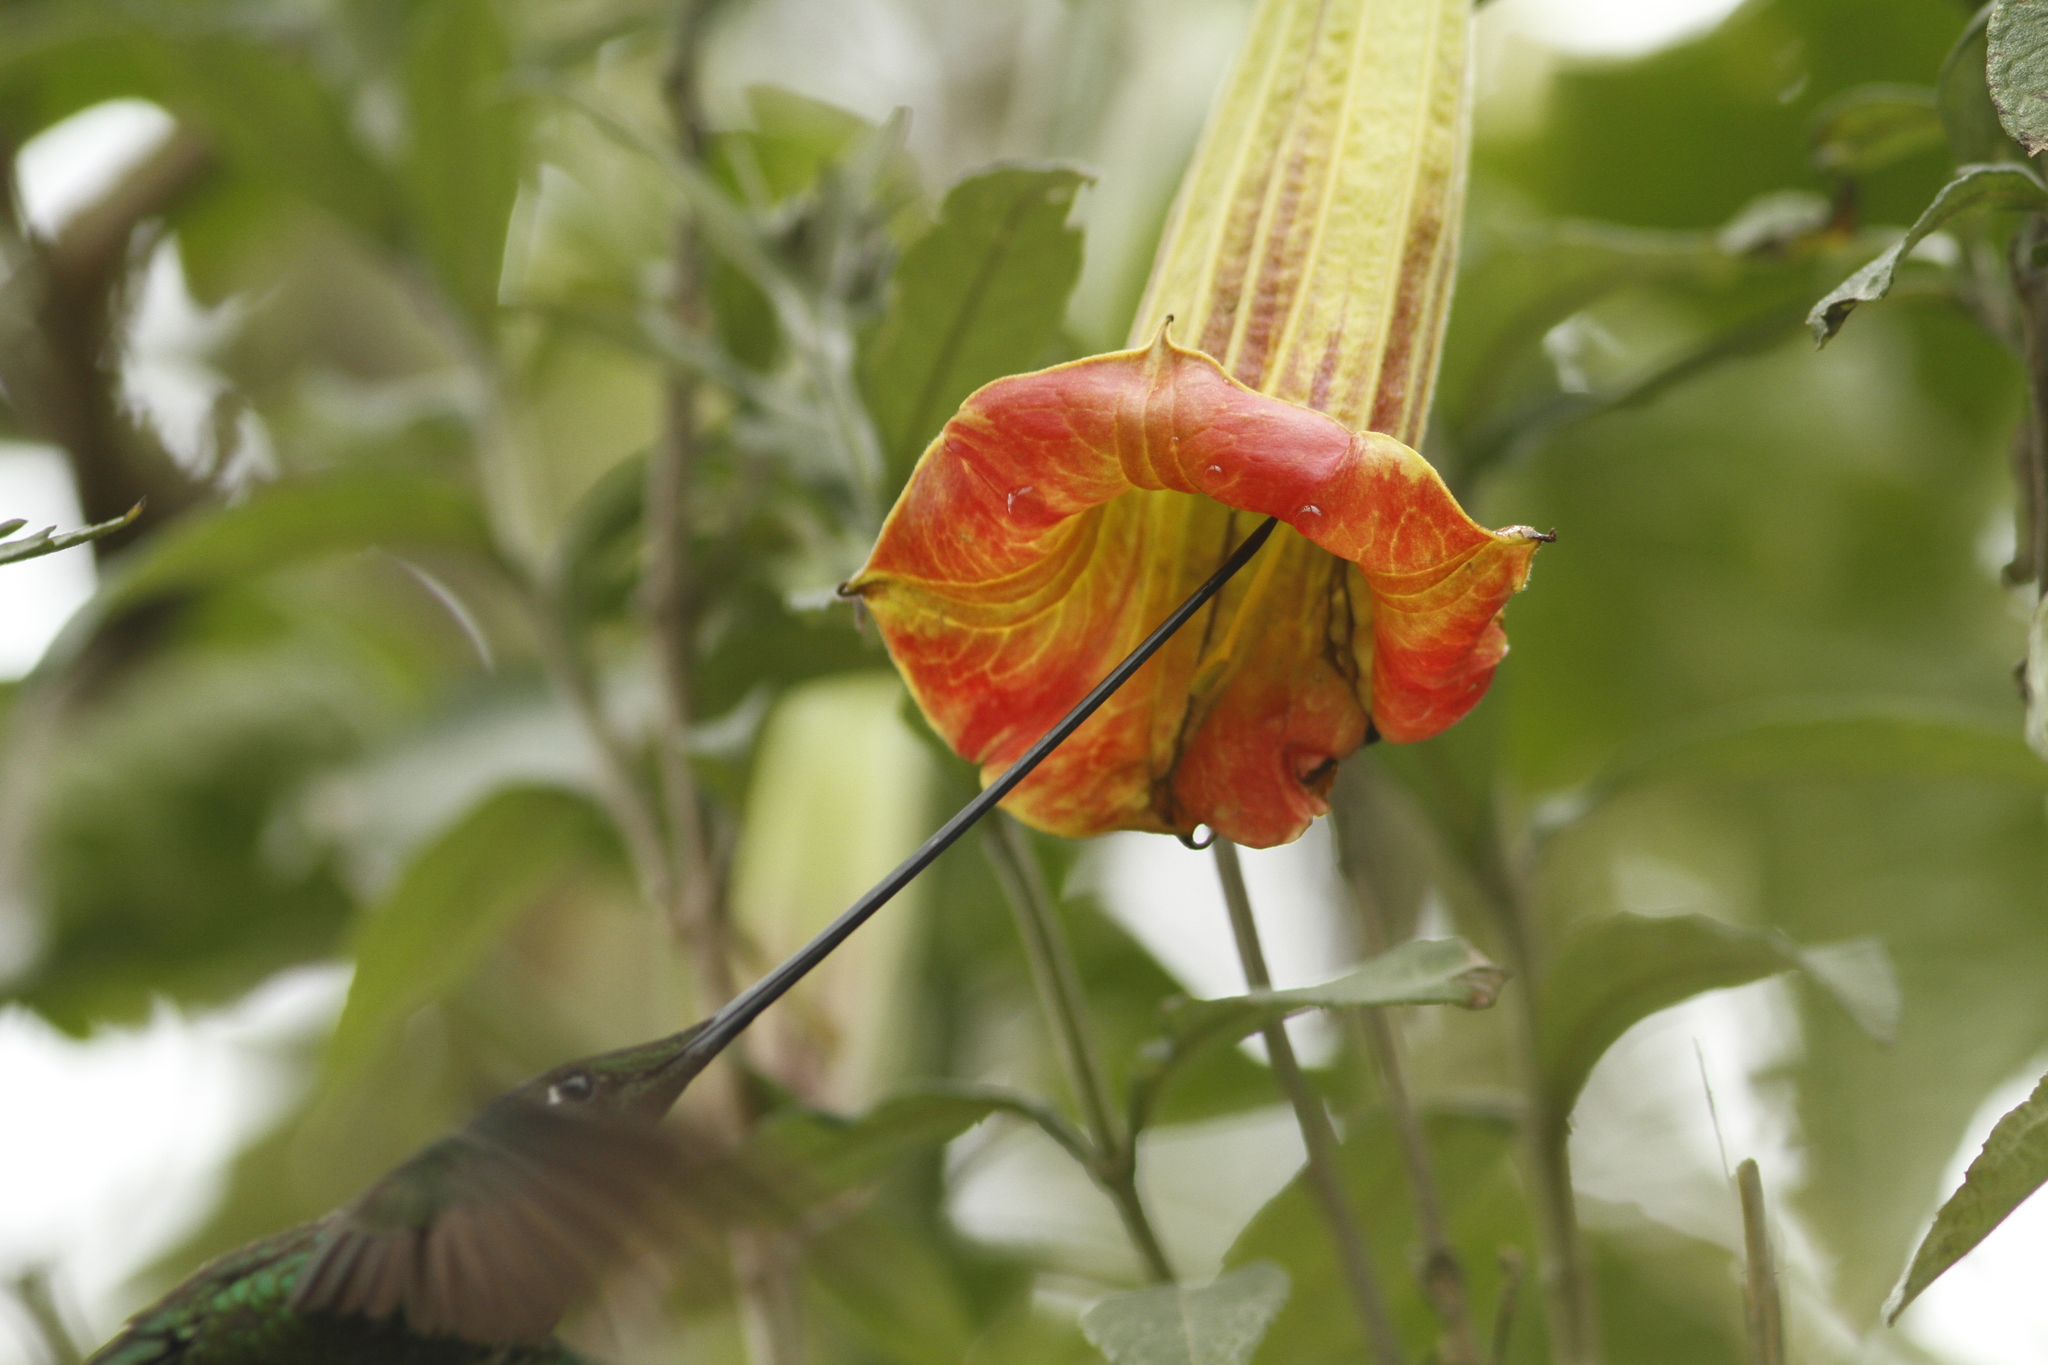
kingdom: Animalia
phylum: Chordata
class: Aves
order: Apodiformes
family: Trochilidae
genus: Ensifera
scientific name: Ensifera ensifera
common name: Sword-billed hummingbird
